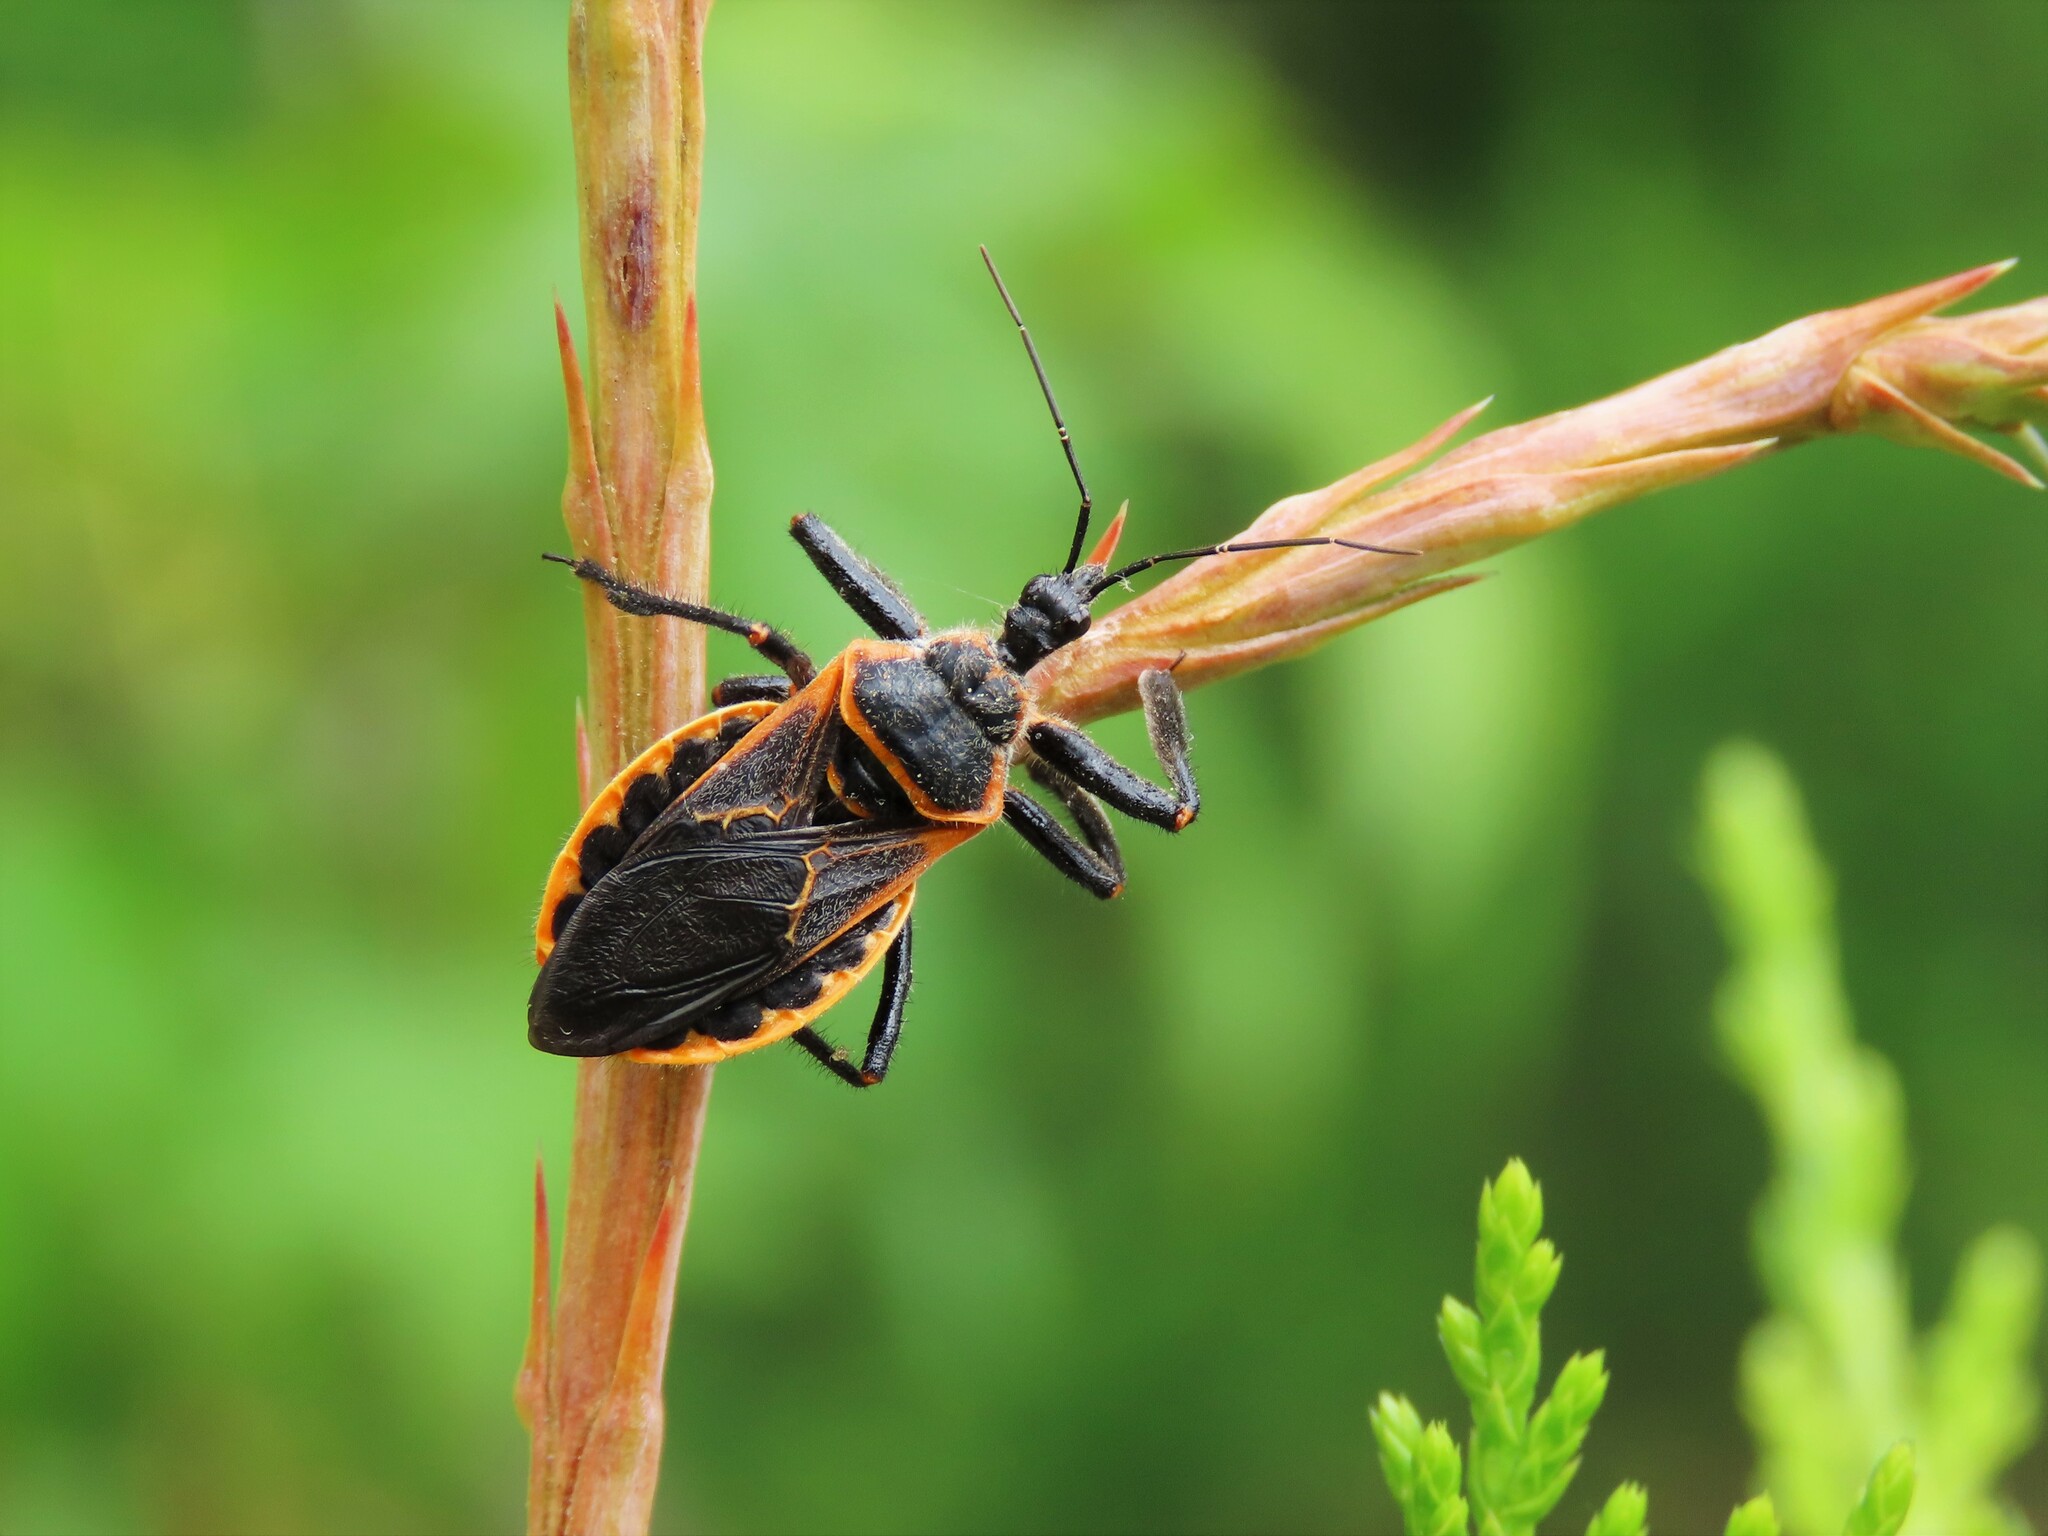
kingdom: Animalia
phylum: Arthropoda
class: Insecta
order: Hemiptera
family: Reduviidae
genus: Apiomerus
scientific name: Apiomerus crassipes
